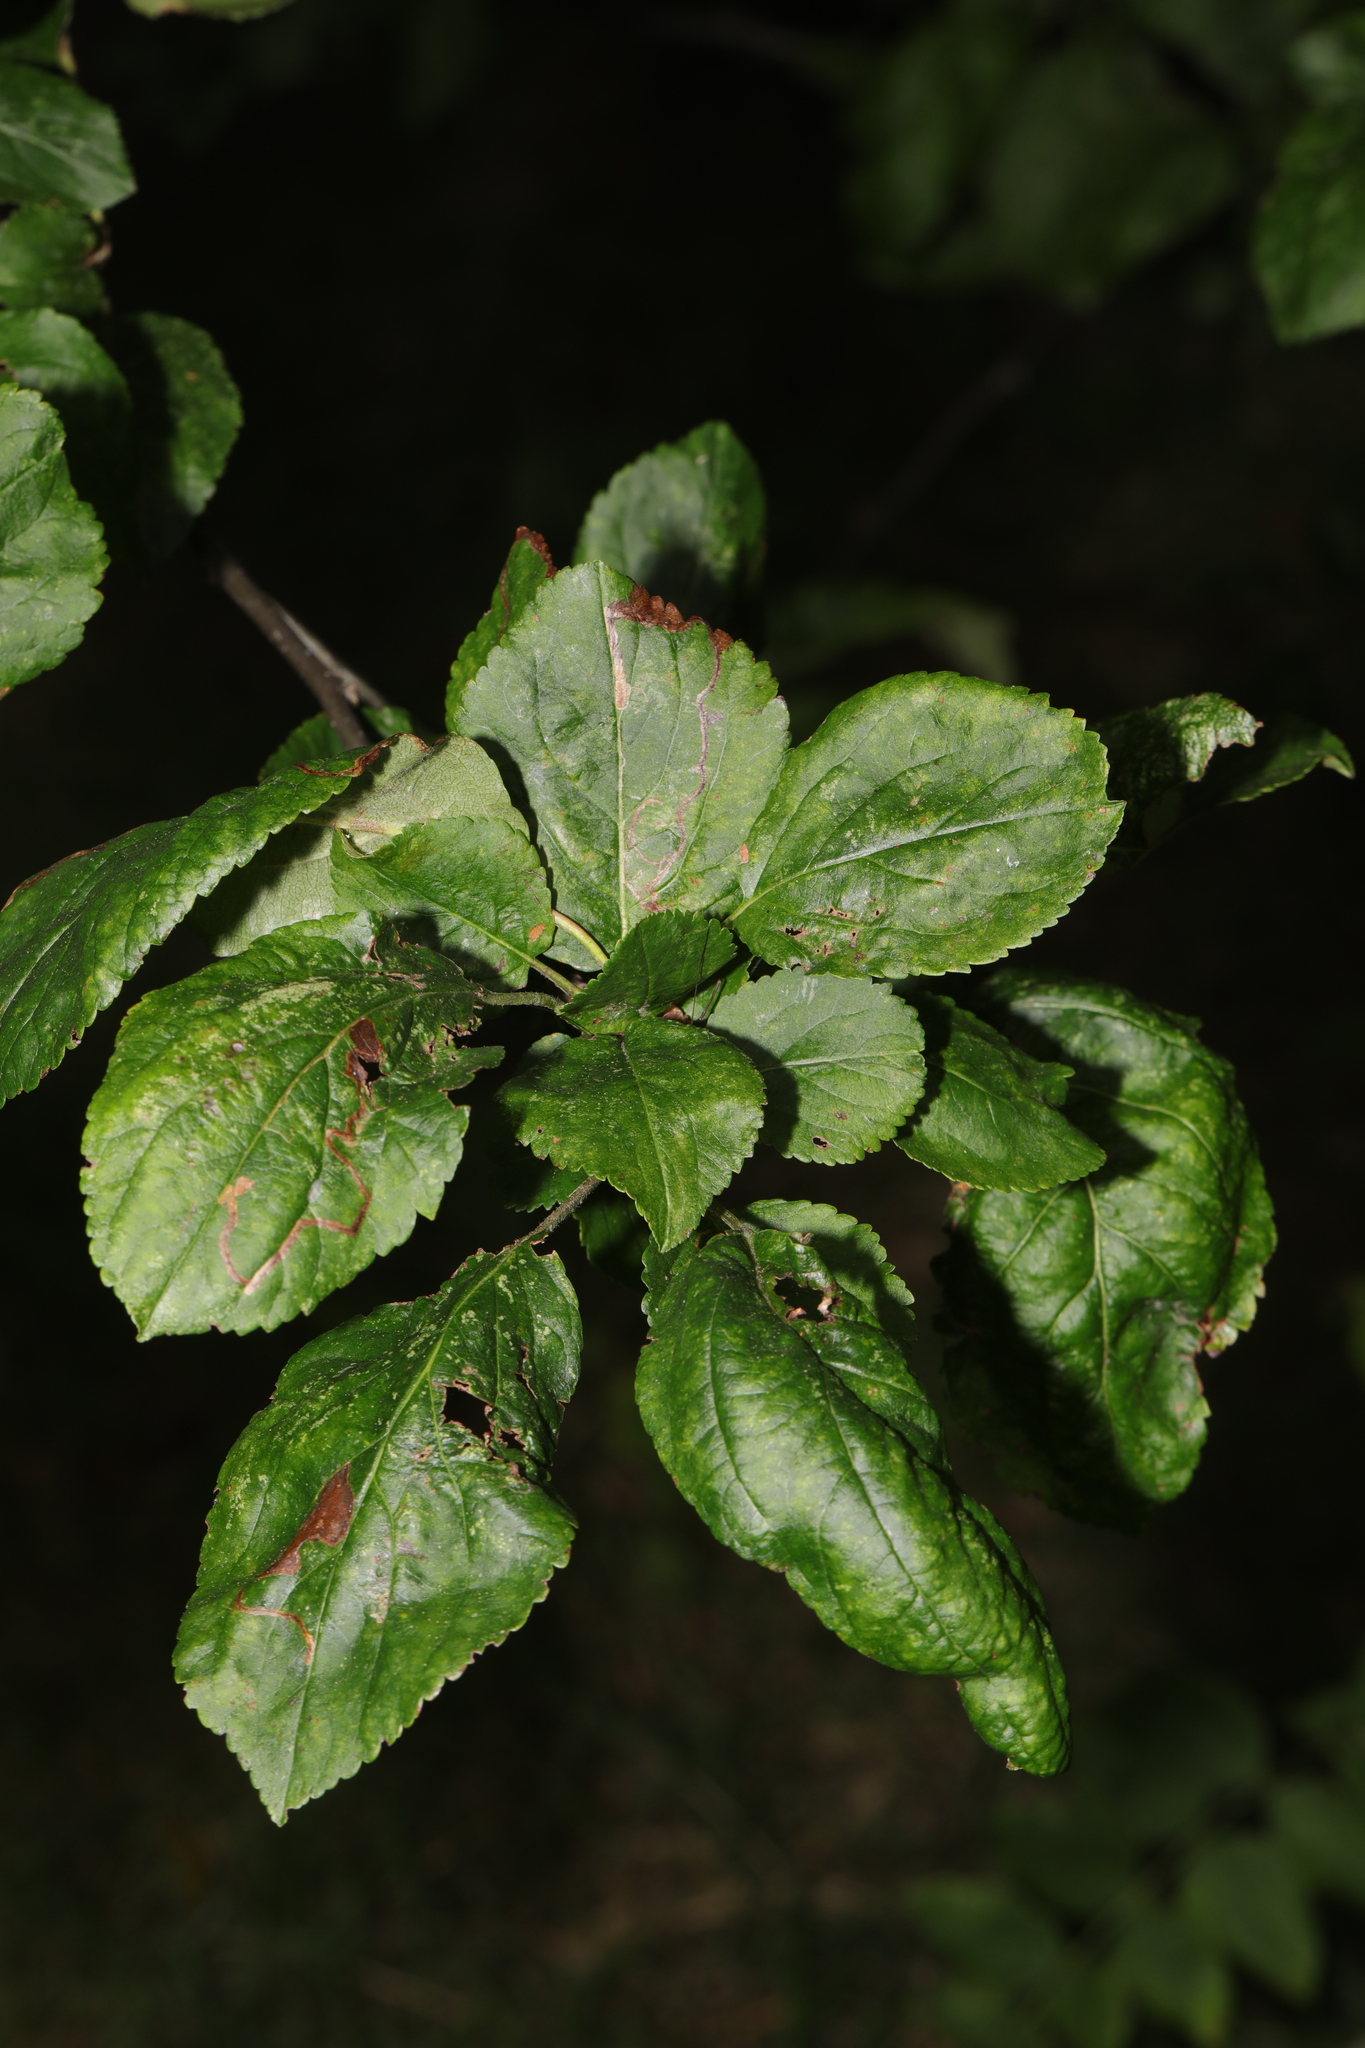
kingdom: Plantae
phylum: Tracheophyta
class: Magnoliopsida
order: Rosales
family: Rosaceae
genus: Malus
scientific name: Malus domestica
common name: Apple
